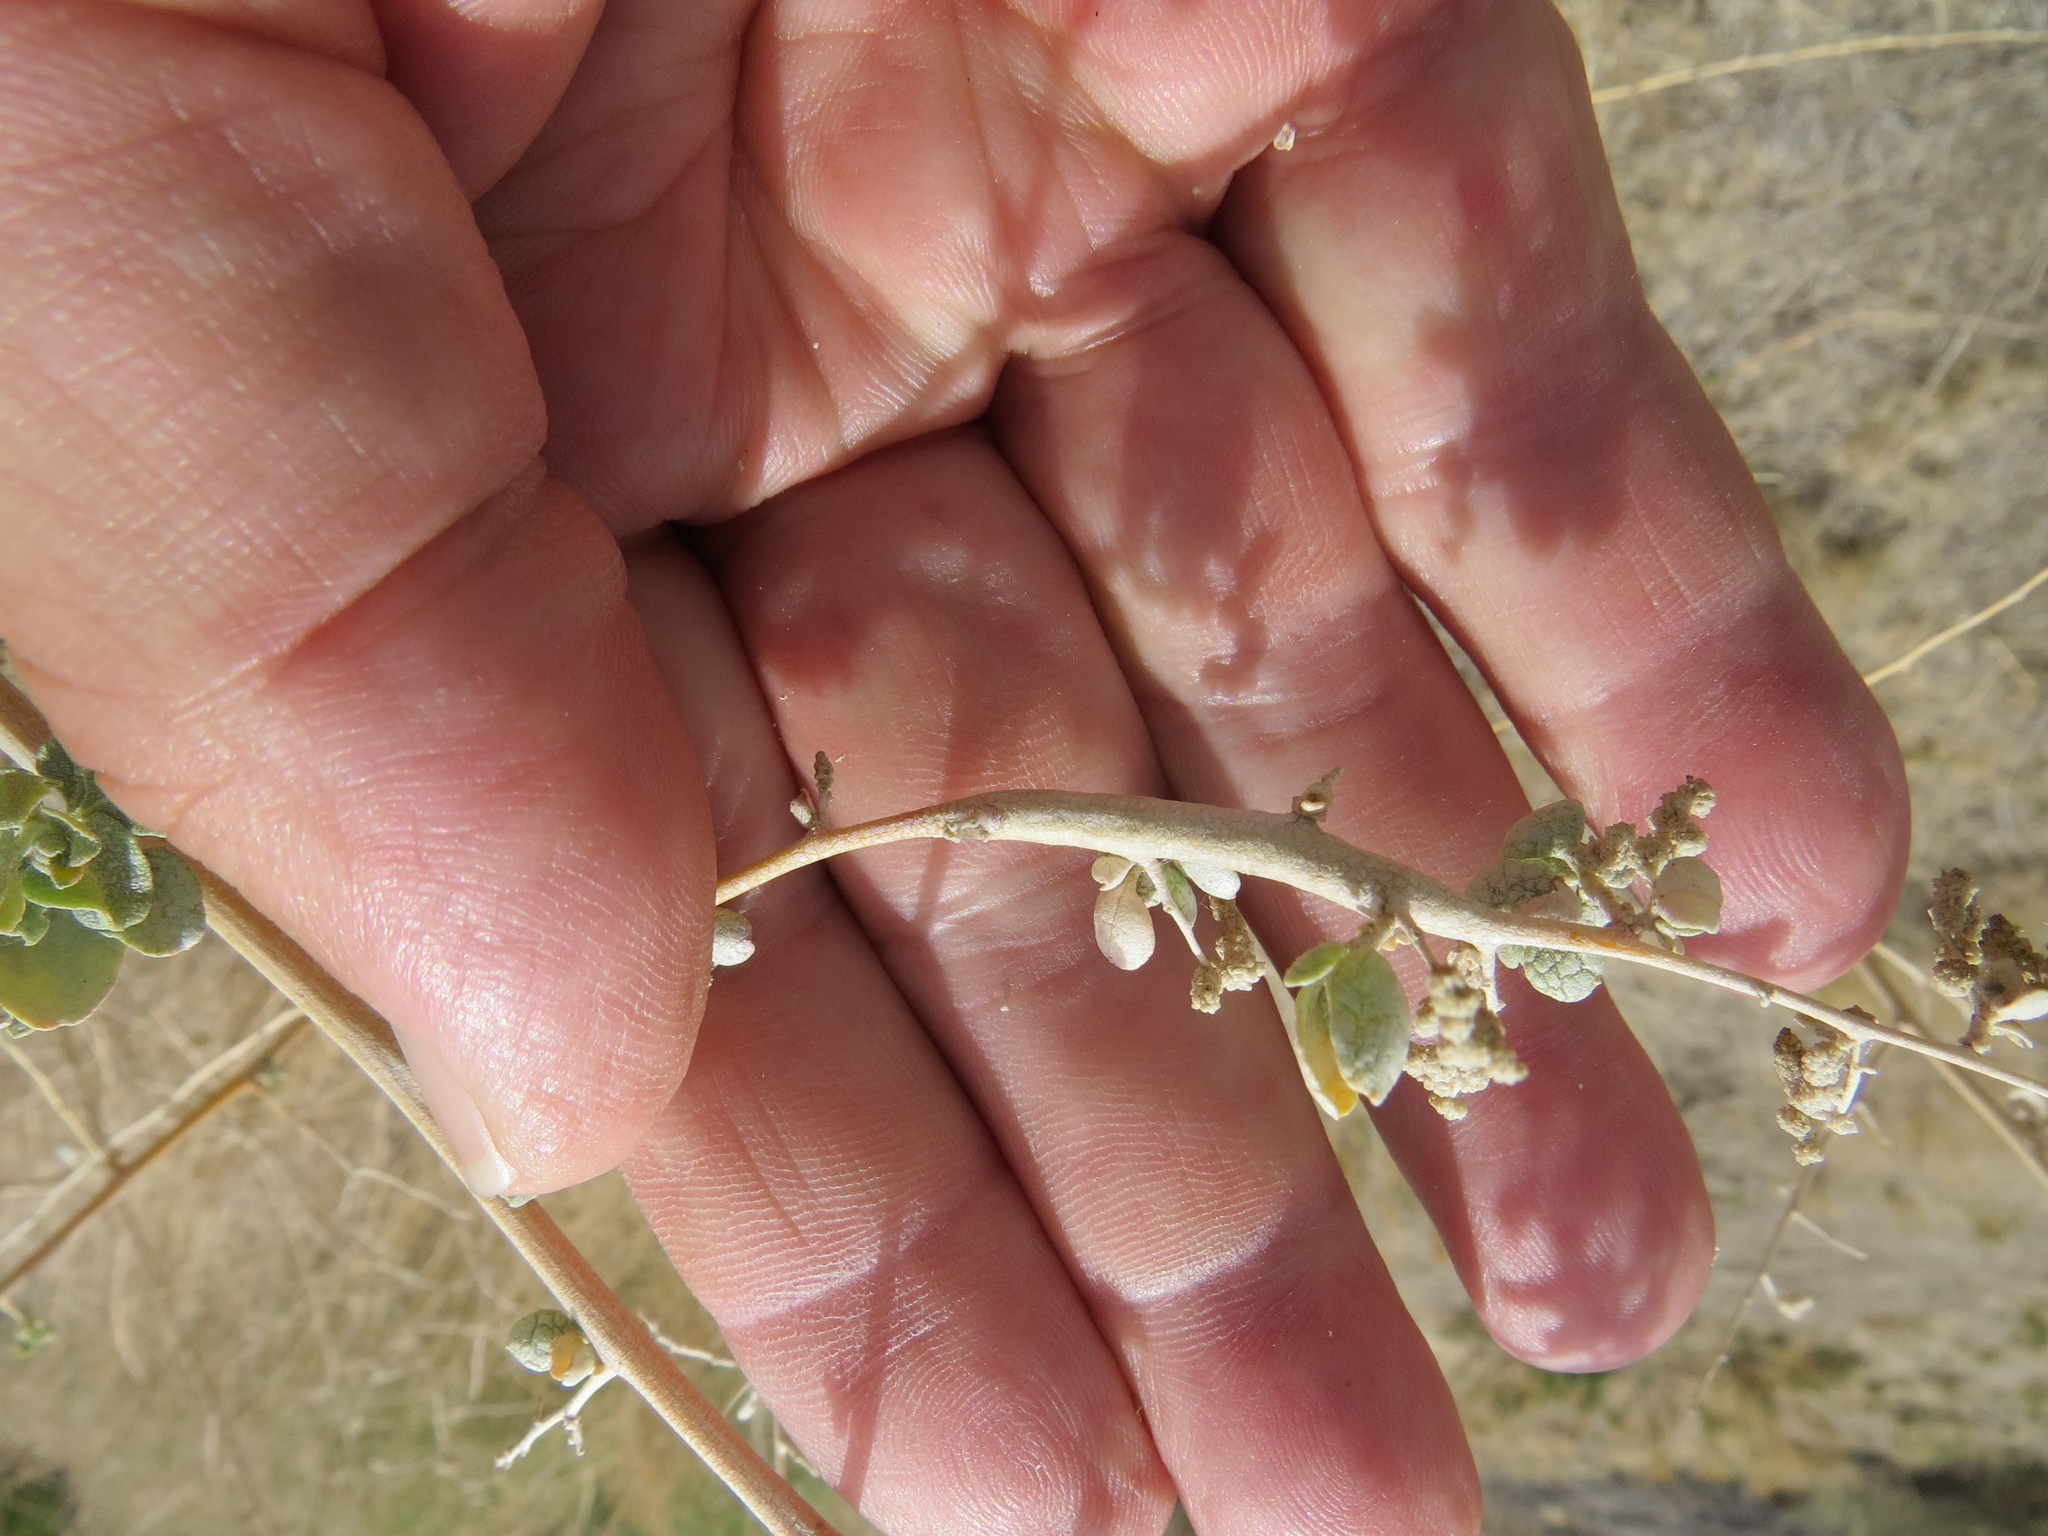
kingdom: Animalia
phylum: Arthropoda
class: Insecta
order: Diptera
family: Cecidomyiidae
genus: Neolasioptera
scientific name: Neolasioptera willistoni
